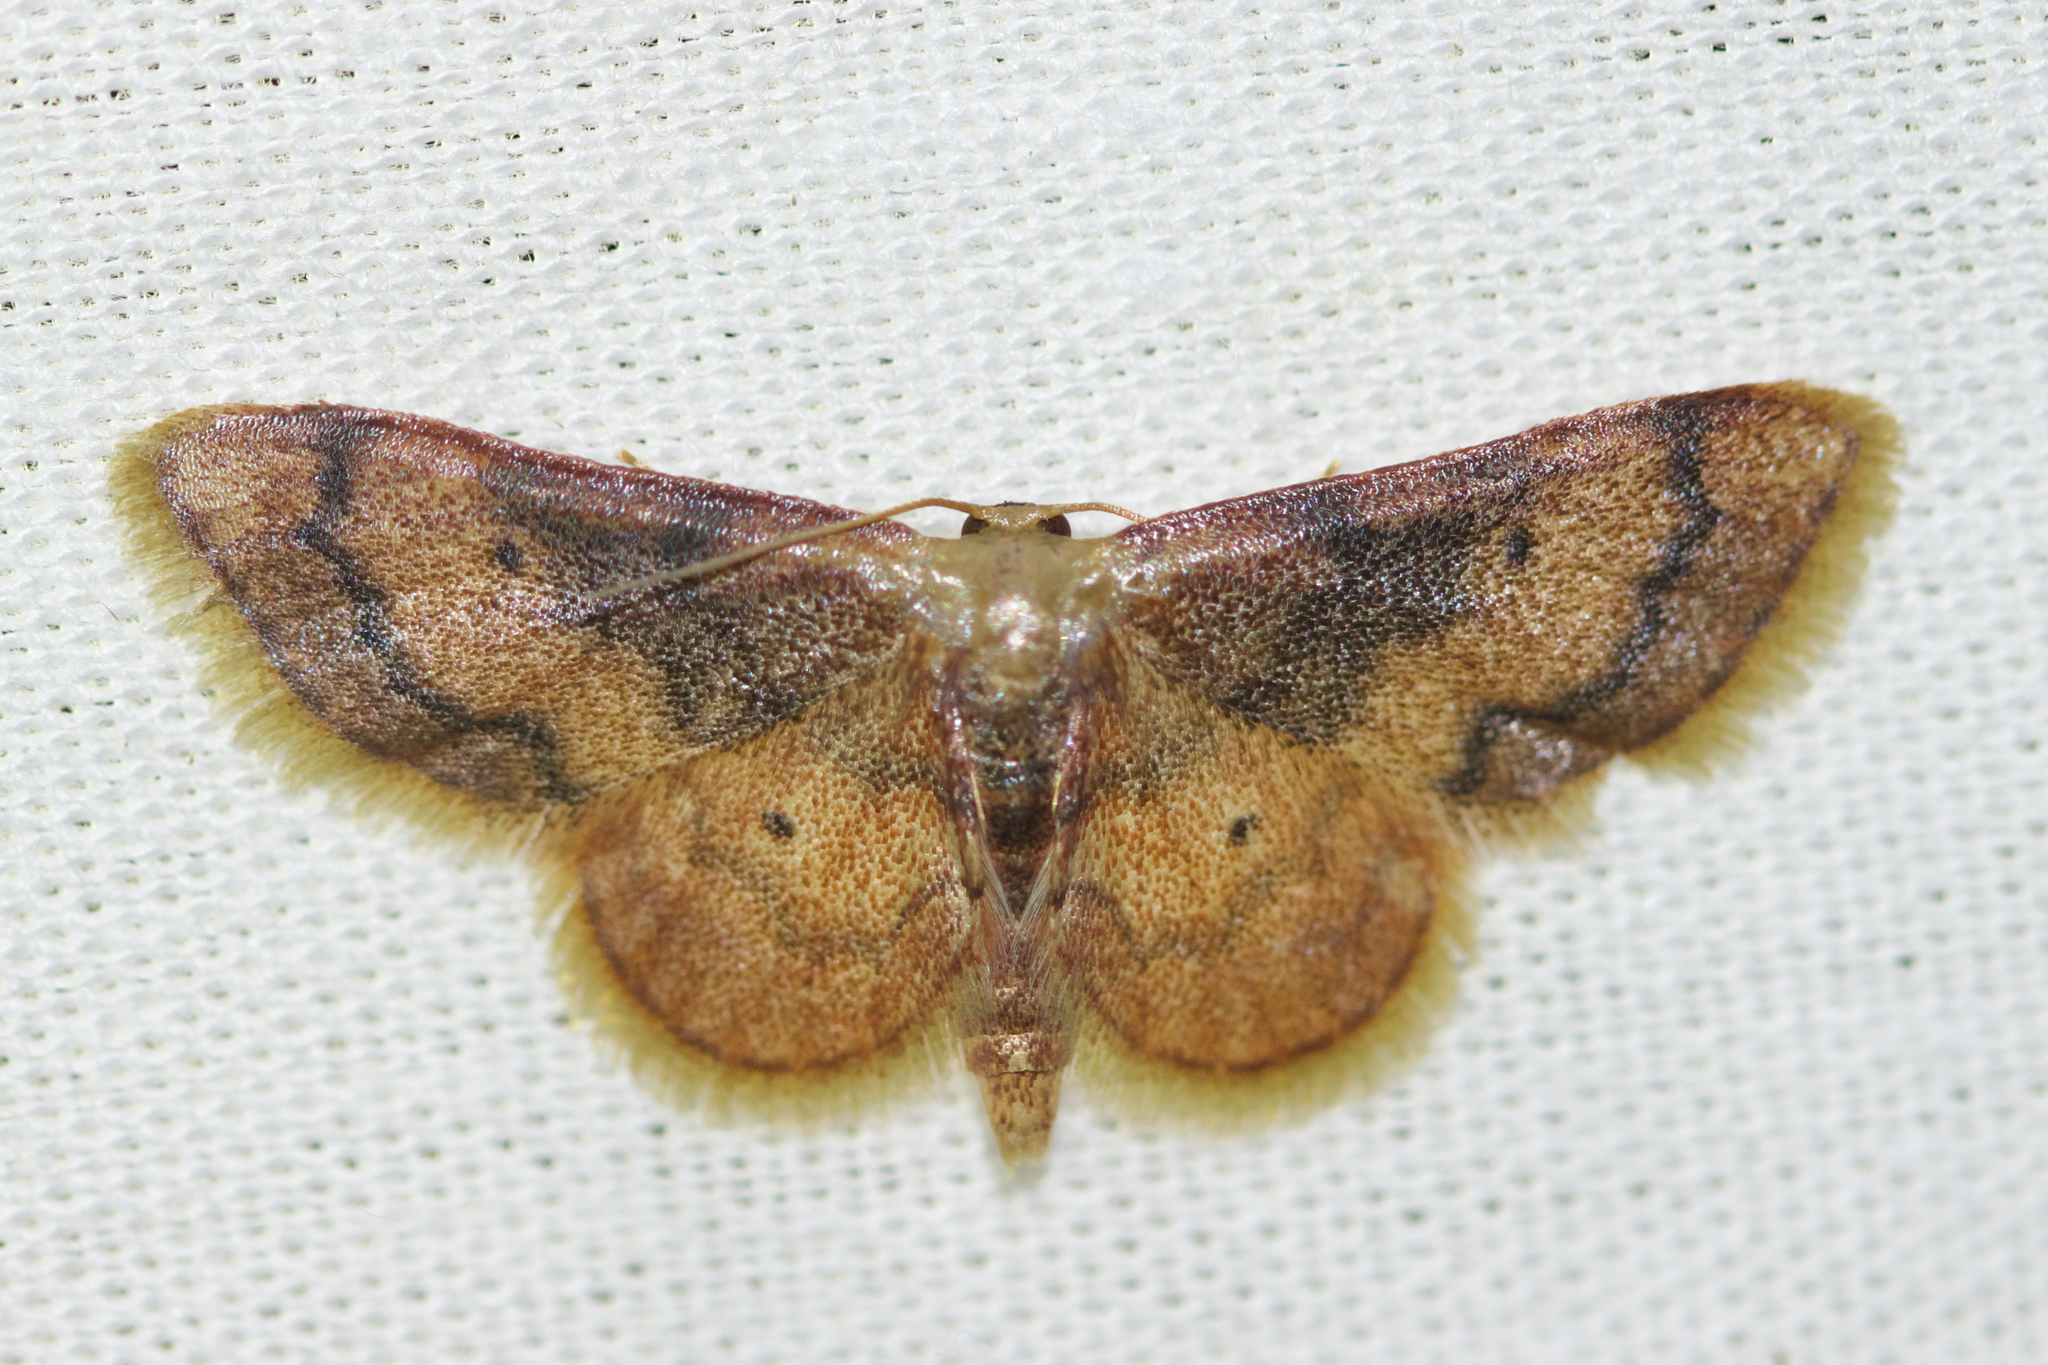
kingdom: Animalia
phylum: Arthropoda
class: Insecta
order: Lepidoptera
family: Geometridae
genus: Idaea
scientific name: Idaea demissaria
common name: Red-bordered wave
